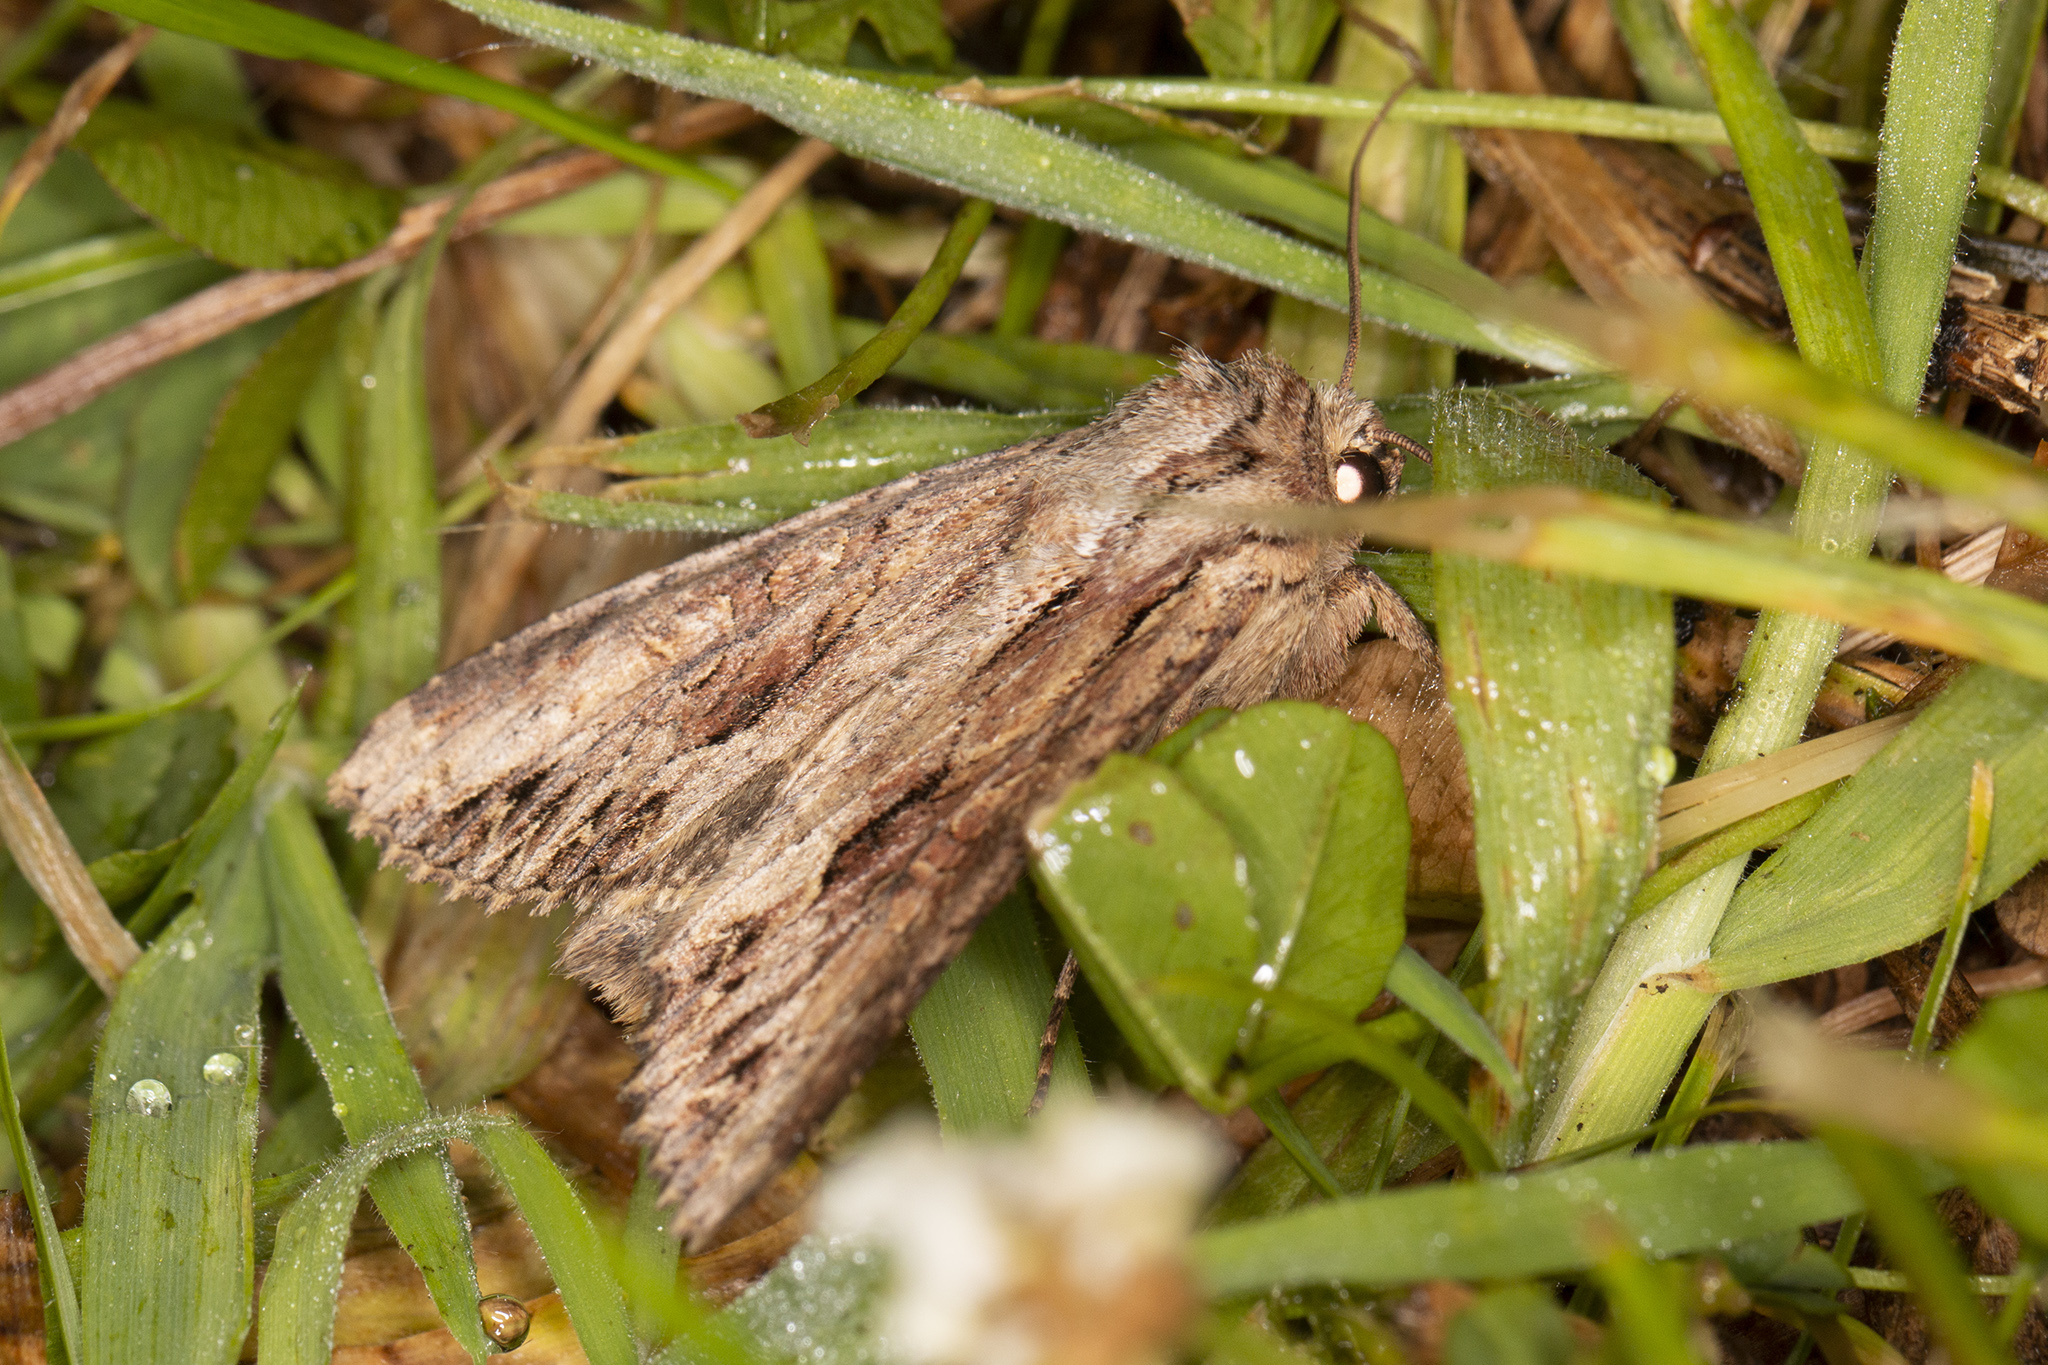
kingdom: Animalia
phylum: Arthropoda
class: Insecta
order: Lepidoptera
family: Noctuidae
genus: Apamea
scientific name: Apamea monoglypha
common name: Dark arches
